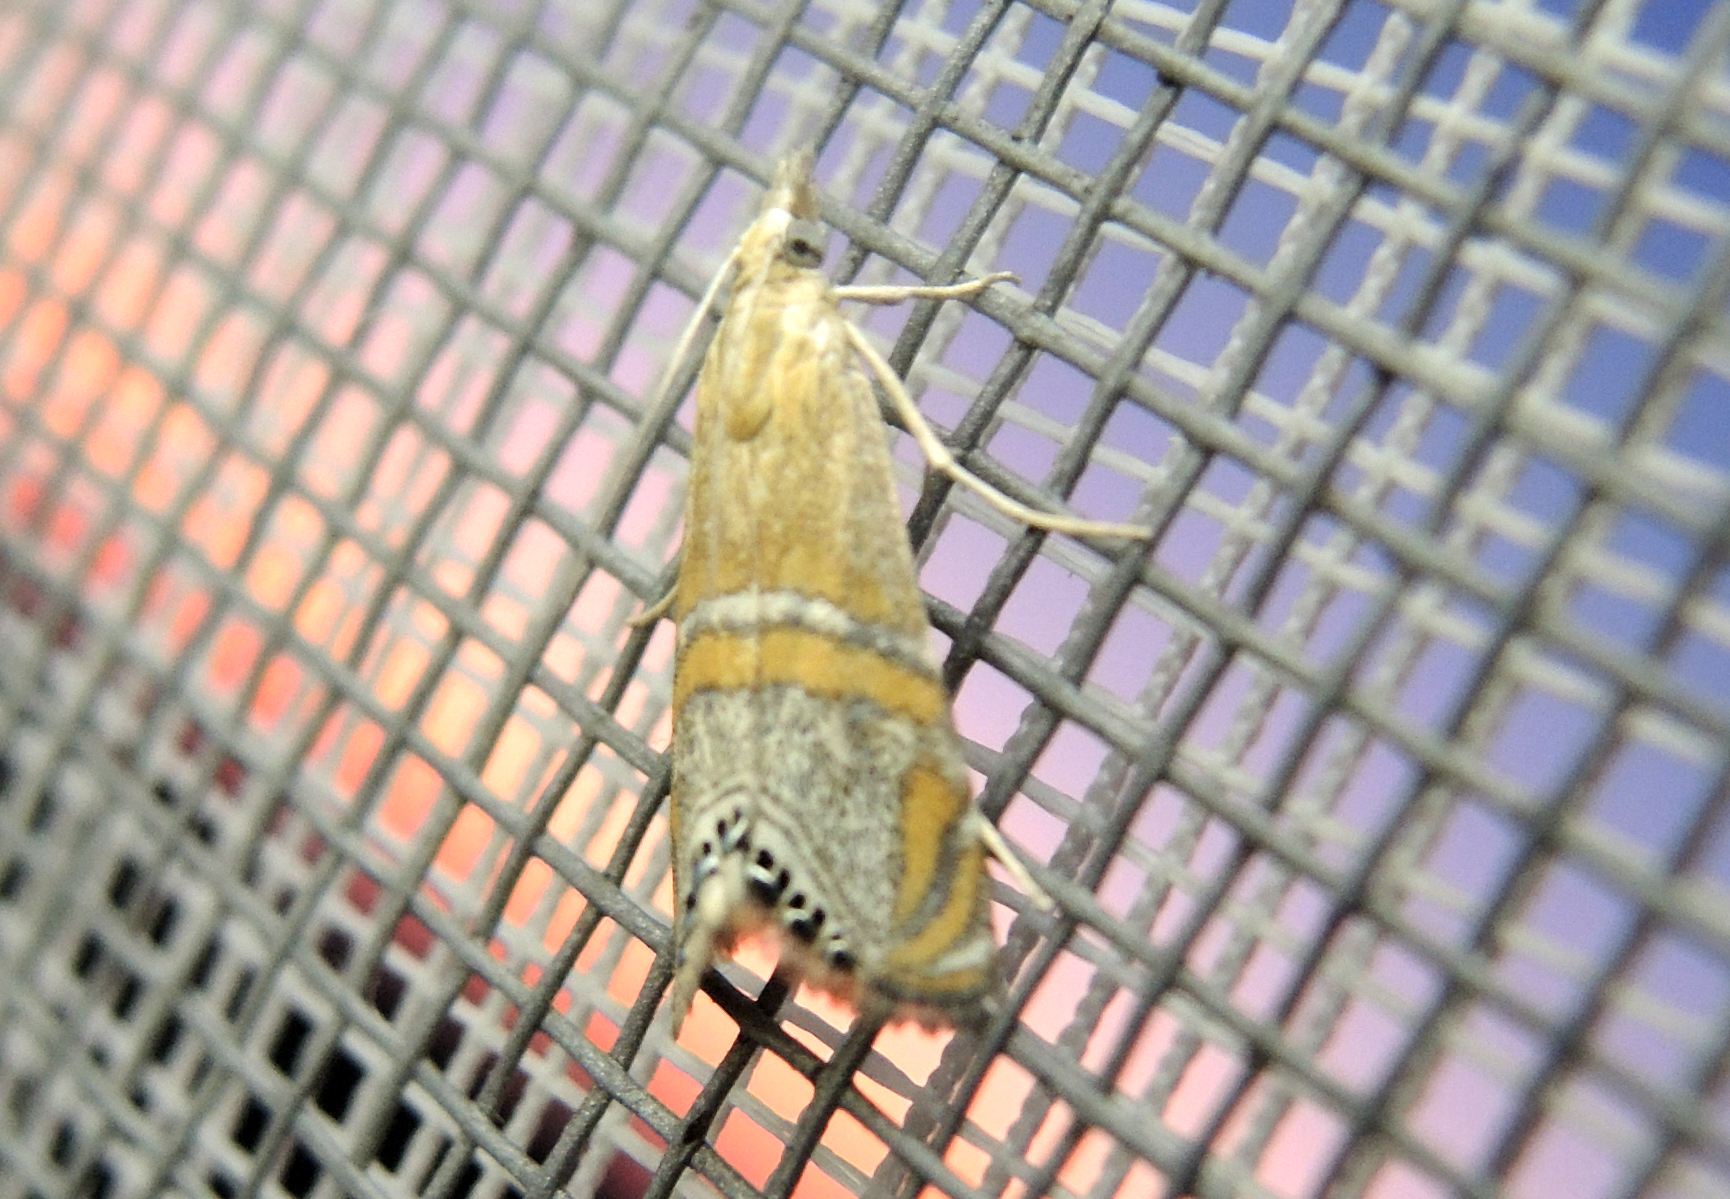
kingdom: Animalia
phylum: Arthropoda
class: Insecta
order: Lepidoptera
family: Crambidae
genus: Euchromius
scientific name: Euchromius bella
